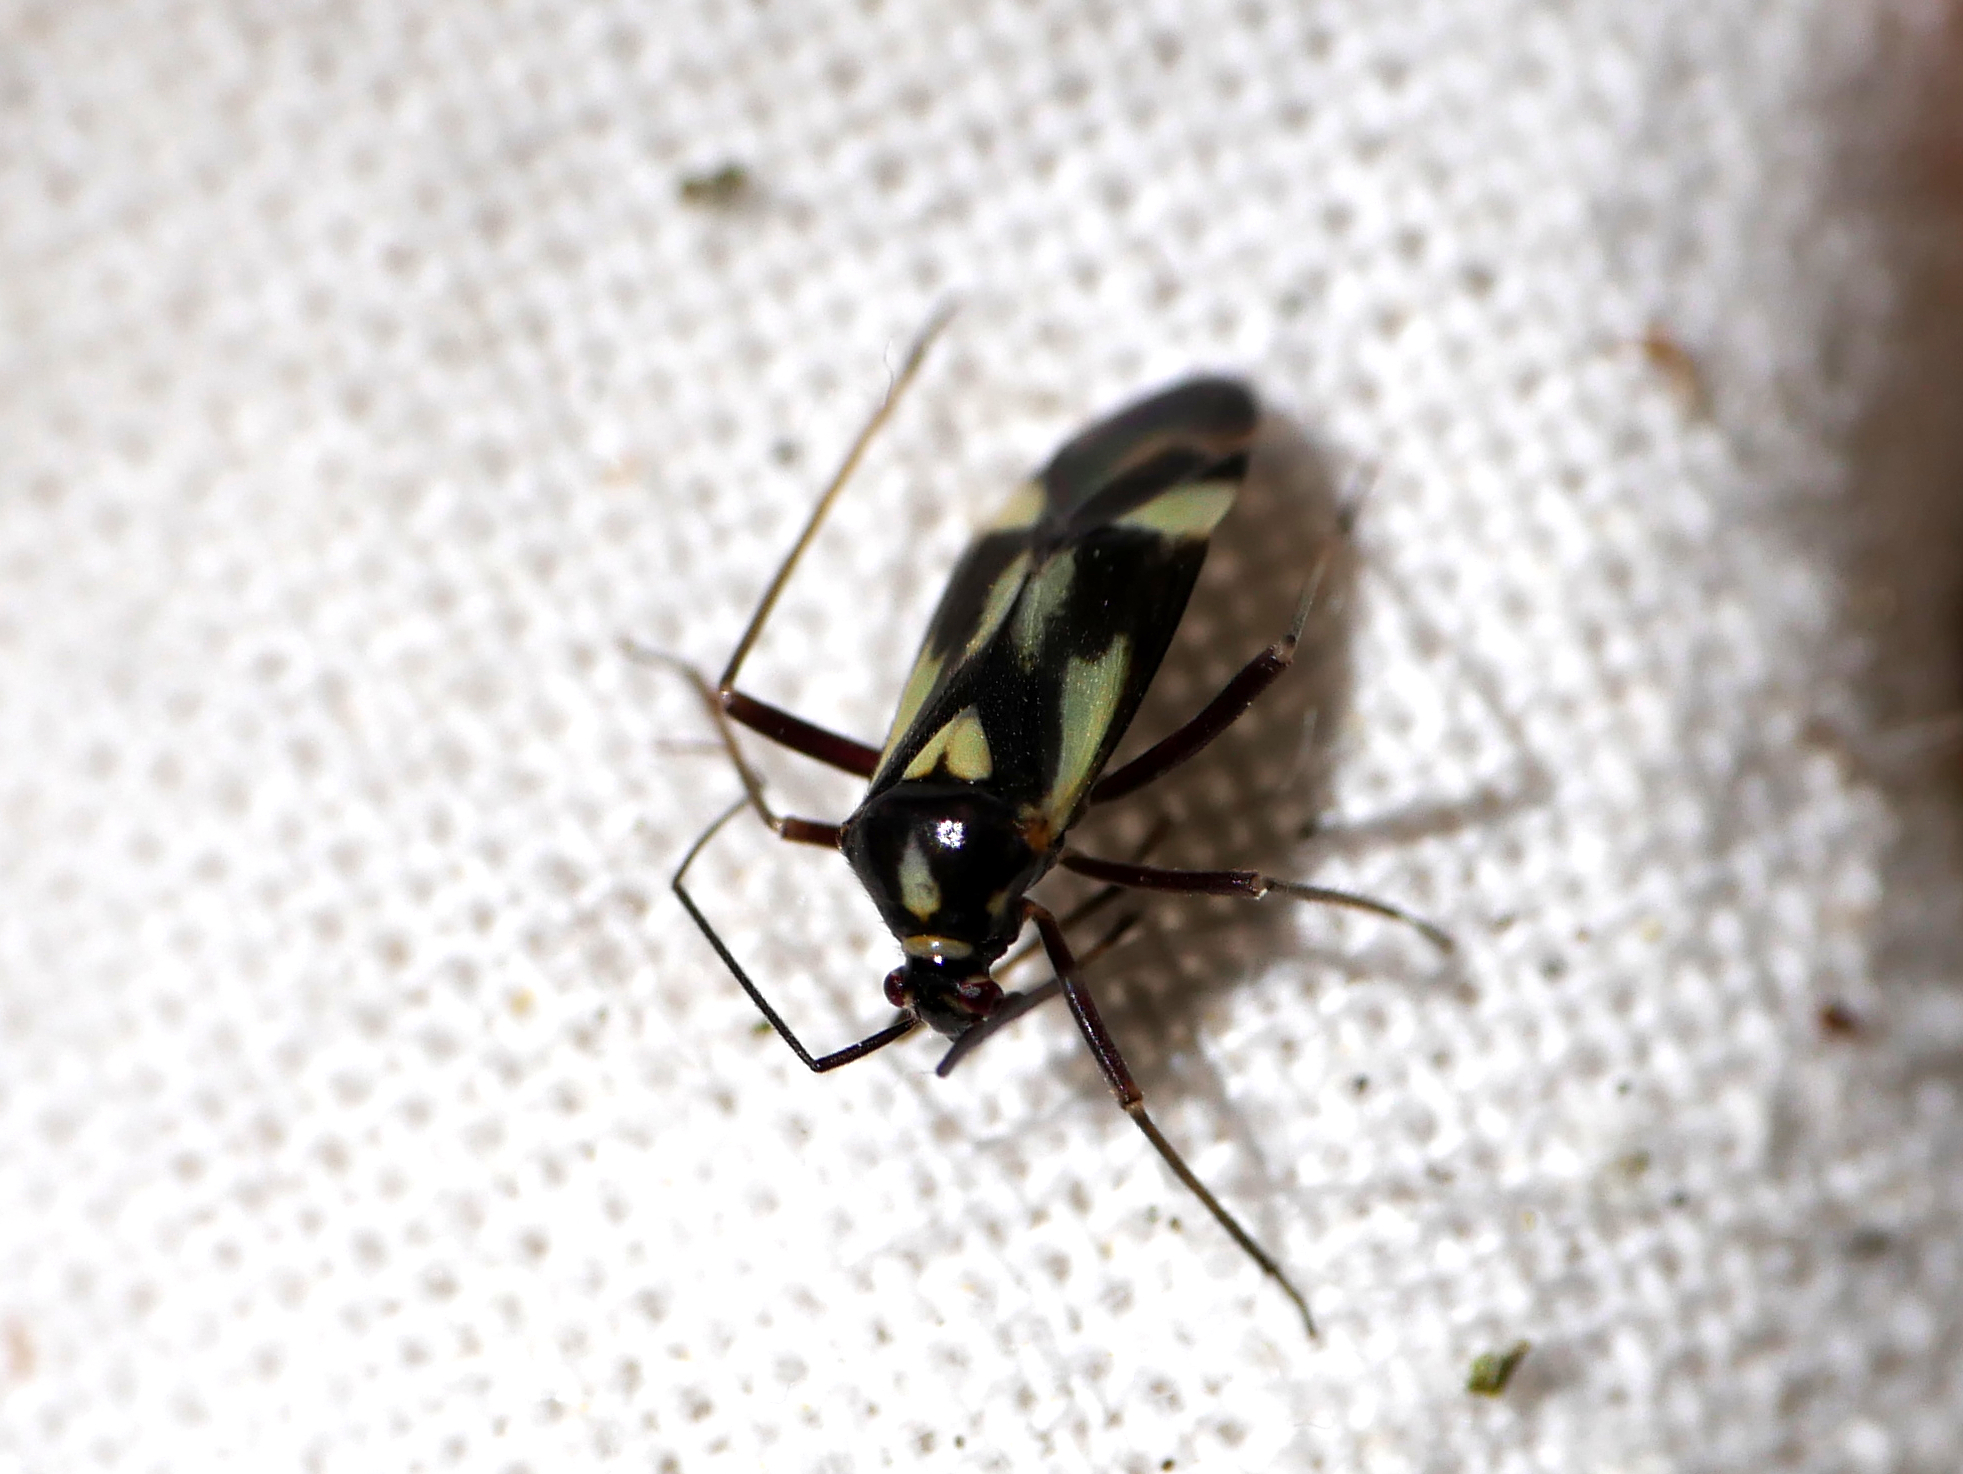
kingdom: Animalia
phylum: Arthropoda
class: Insecta
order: Hemiptera
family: Miridae
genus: Grypocoris
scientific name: Grypocoris sexguttatus
